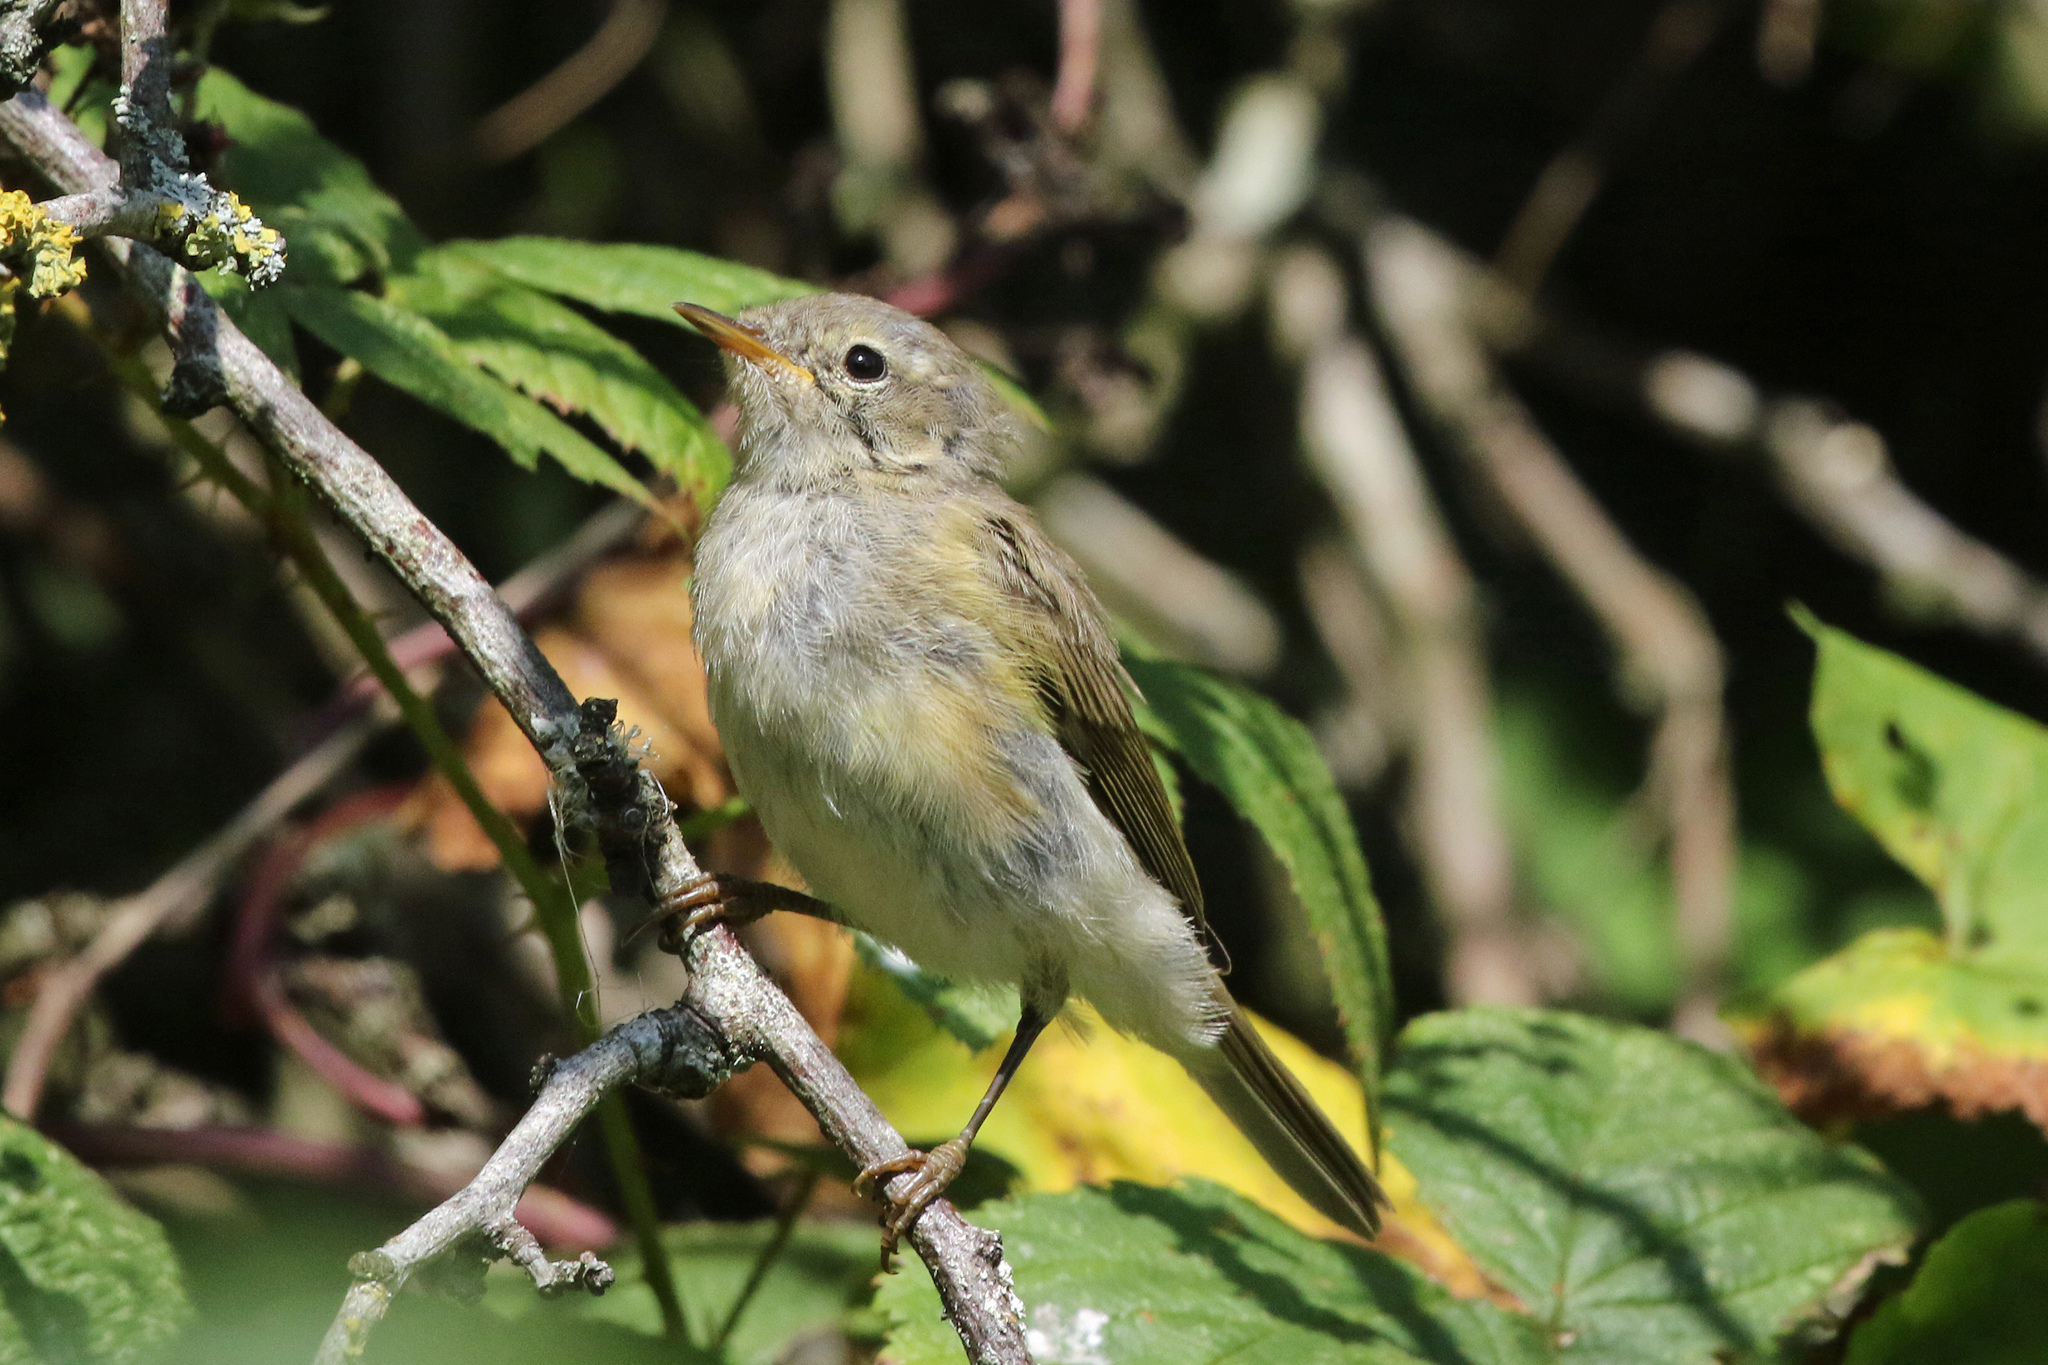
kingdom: Animalia
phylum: Chordata
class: Aves
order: Passeriformes
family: Phylloscopidae
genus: Phylloscopus
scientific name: Phylloscopus collybita
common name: Common chiffchaff
